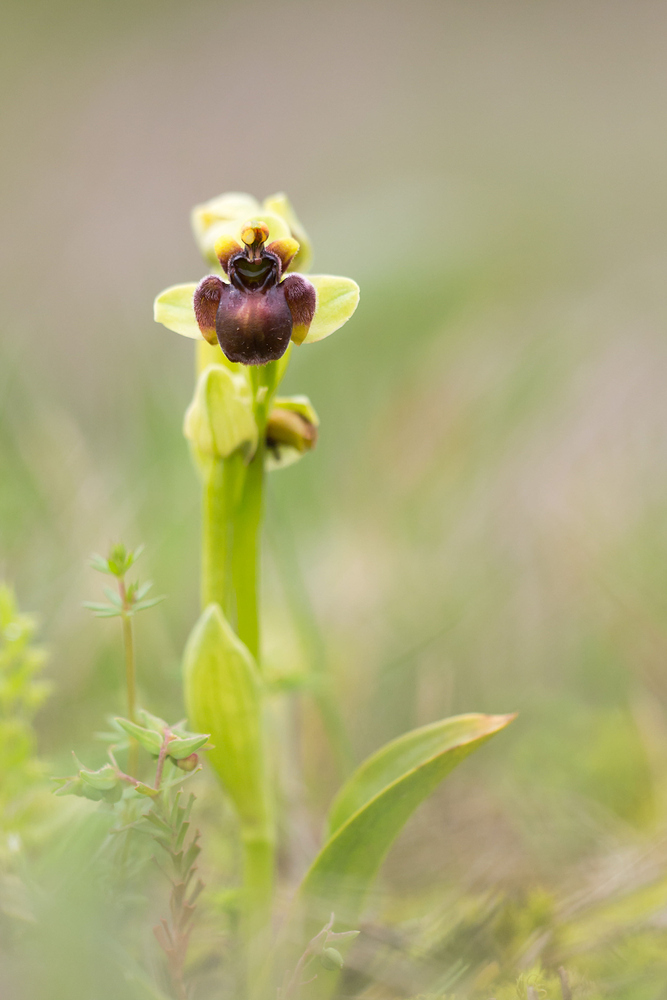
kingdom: Plantae
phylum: Tracheophyta
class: Liliopsida
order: Asparagales
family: Orchidaceae
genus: Ophrys
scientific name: Ophrys bombyliflora
